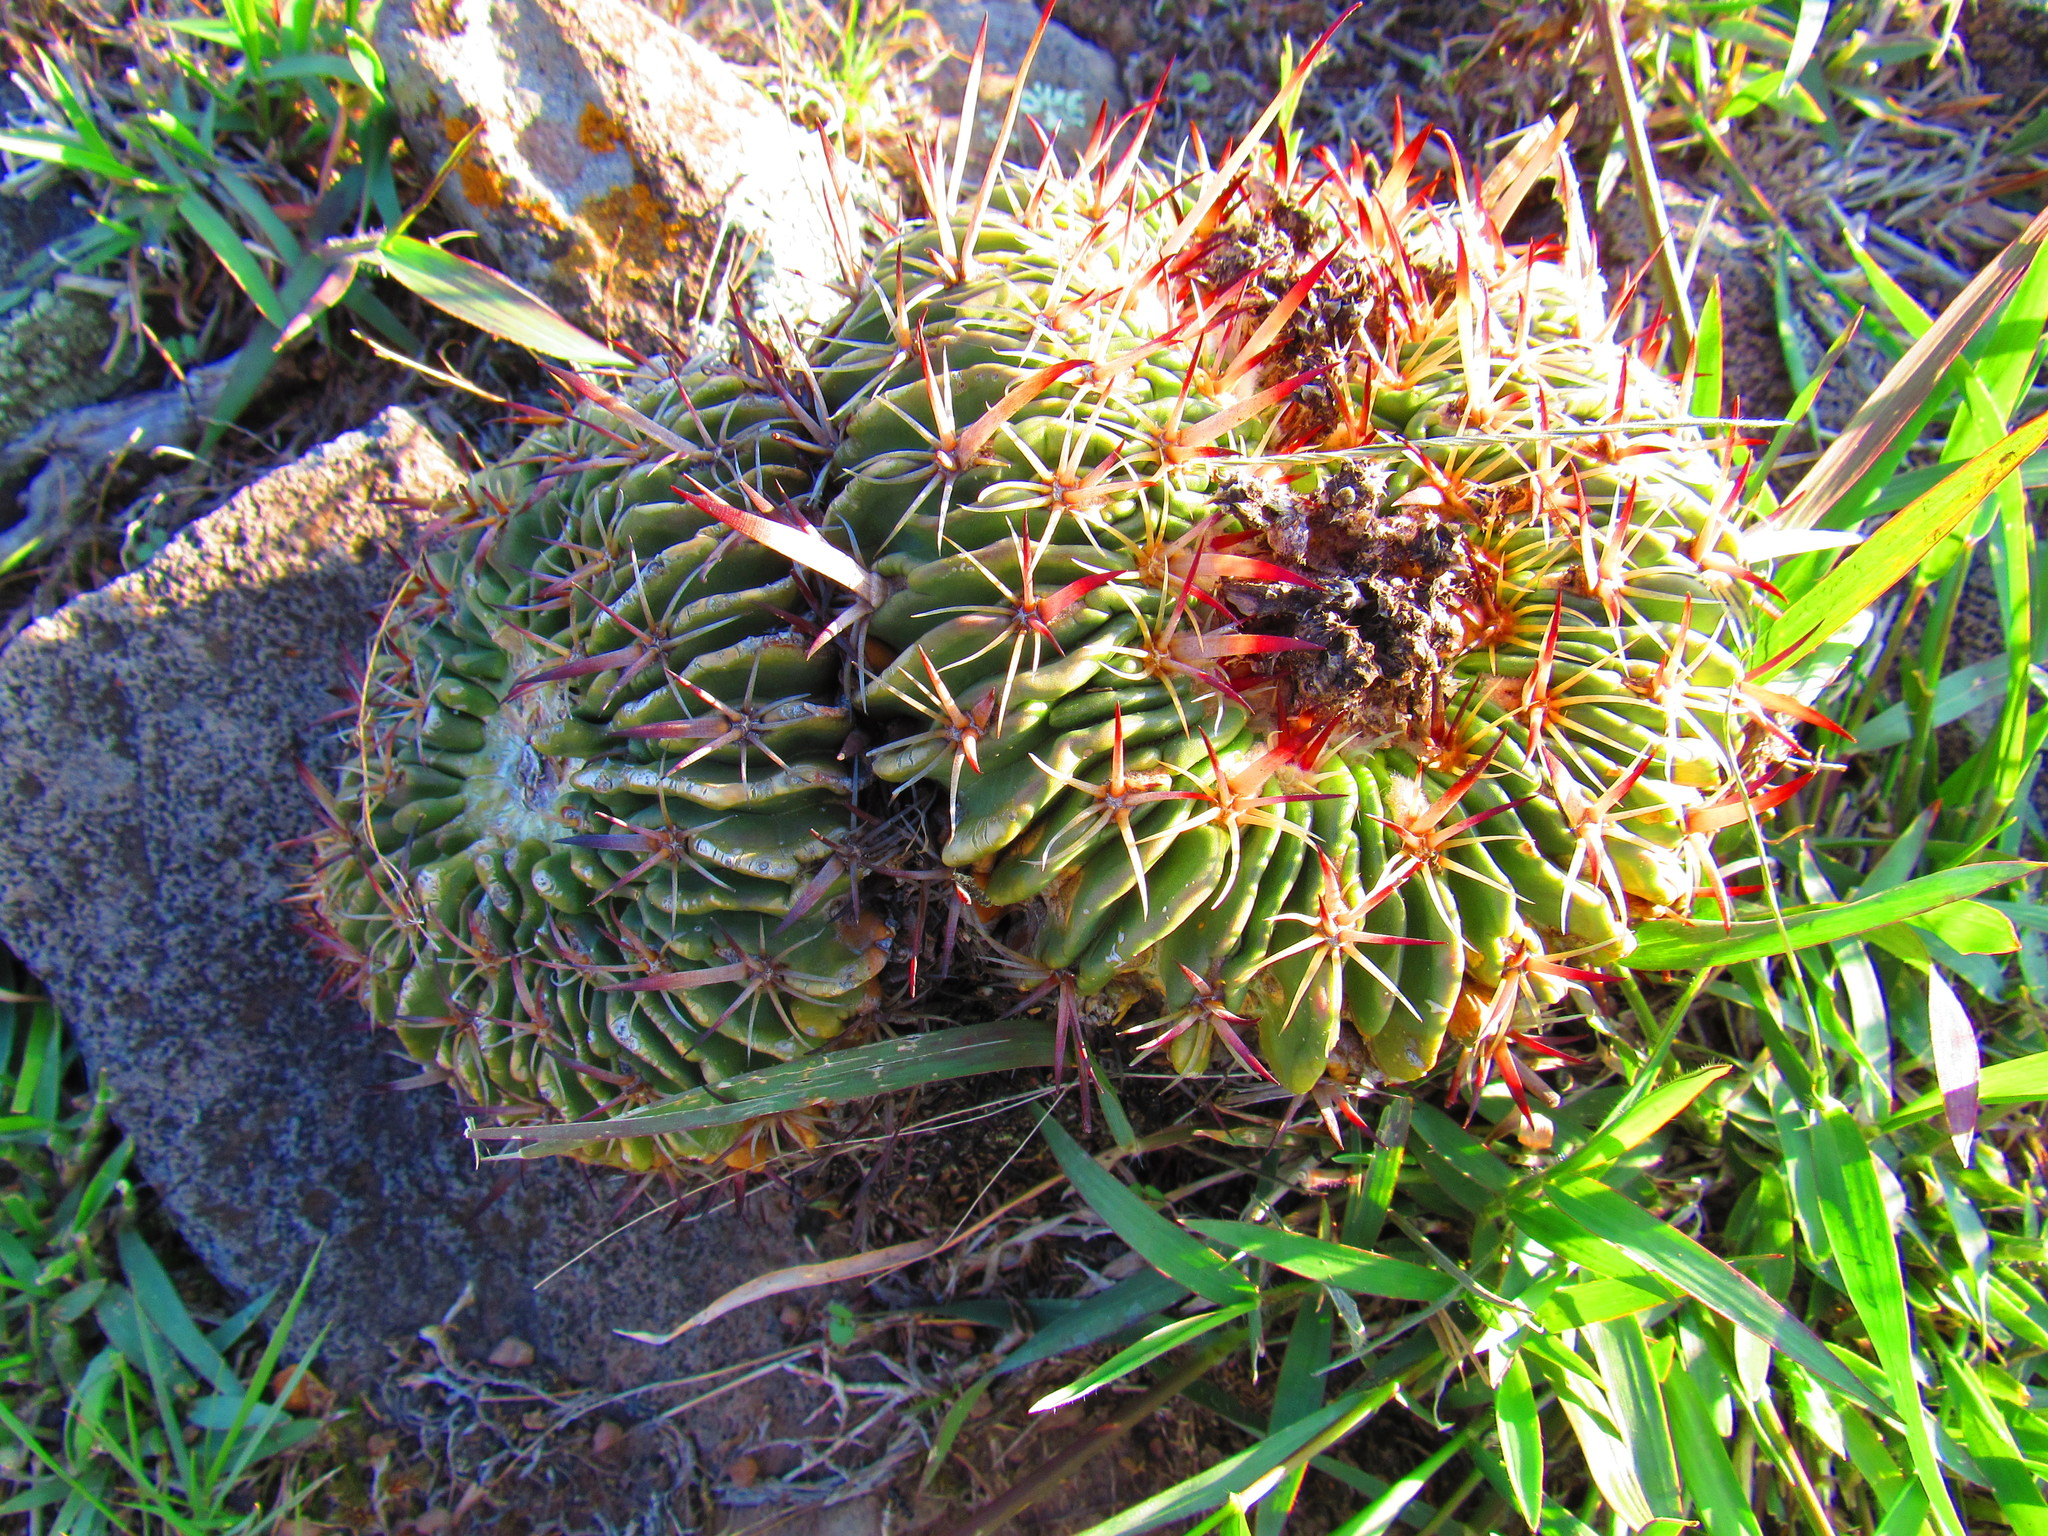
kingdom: Plantae
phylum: Tracheophyta
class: Magnoliopsida
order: Caryophyllales
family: Cactaceae
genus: Stenocactus
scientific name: Stenocactus crispatus
